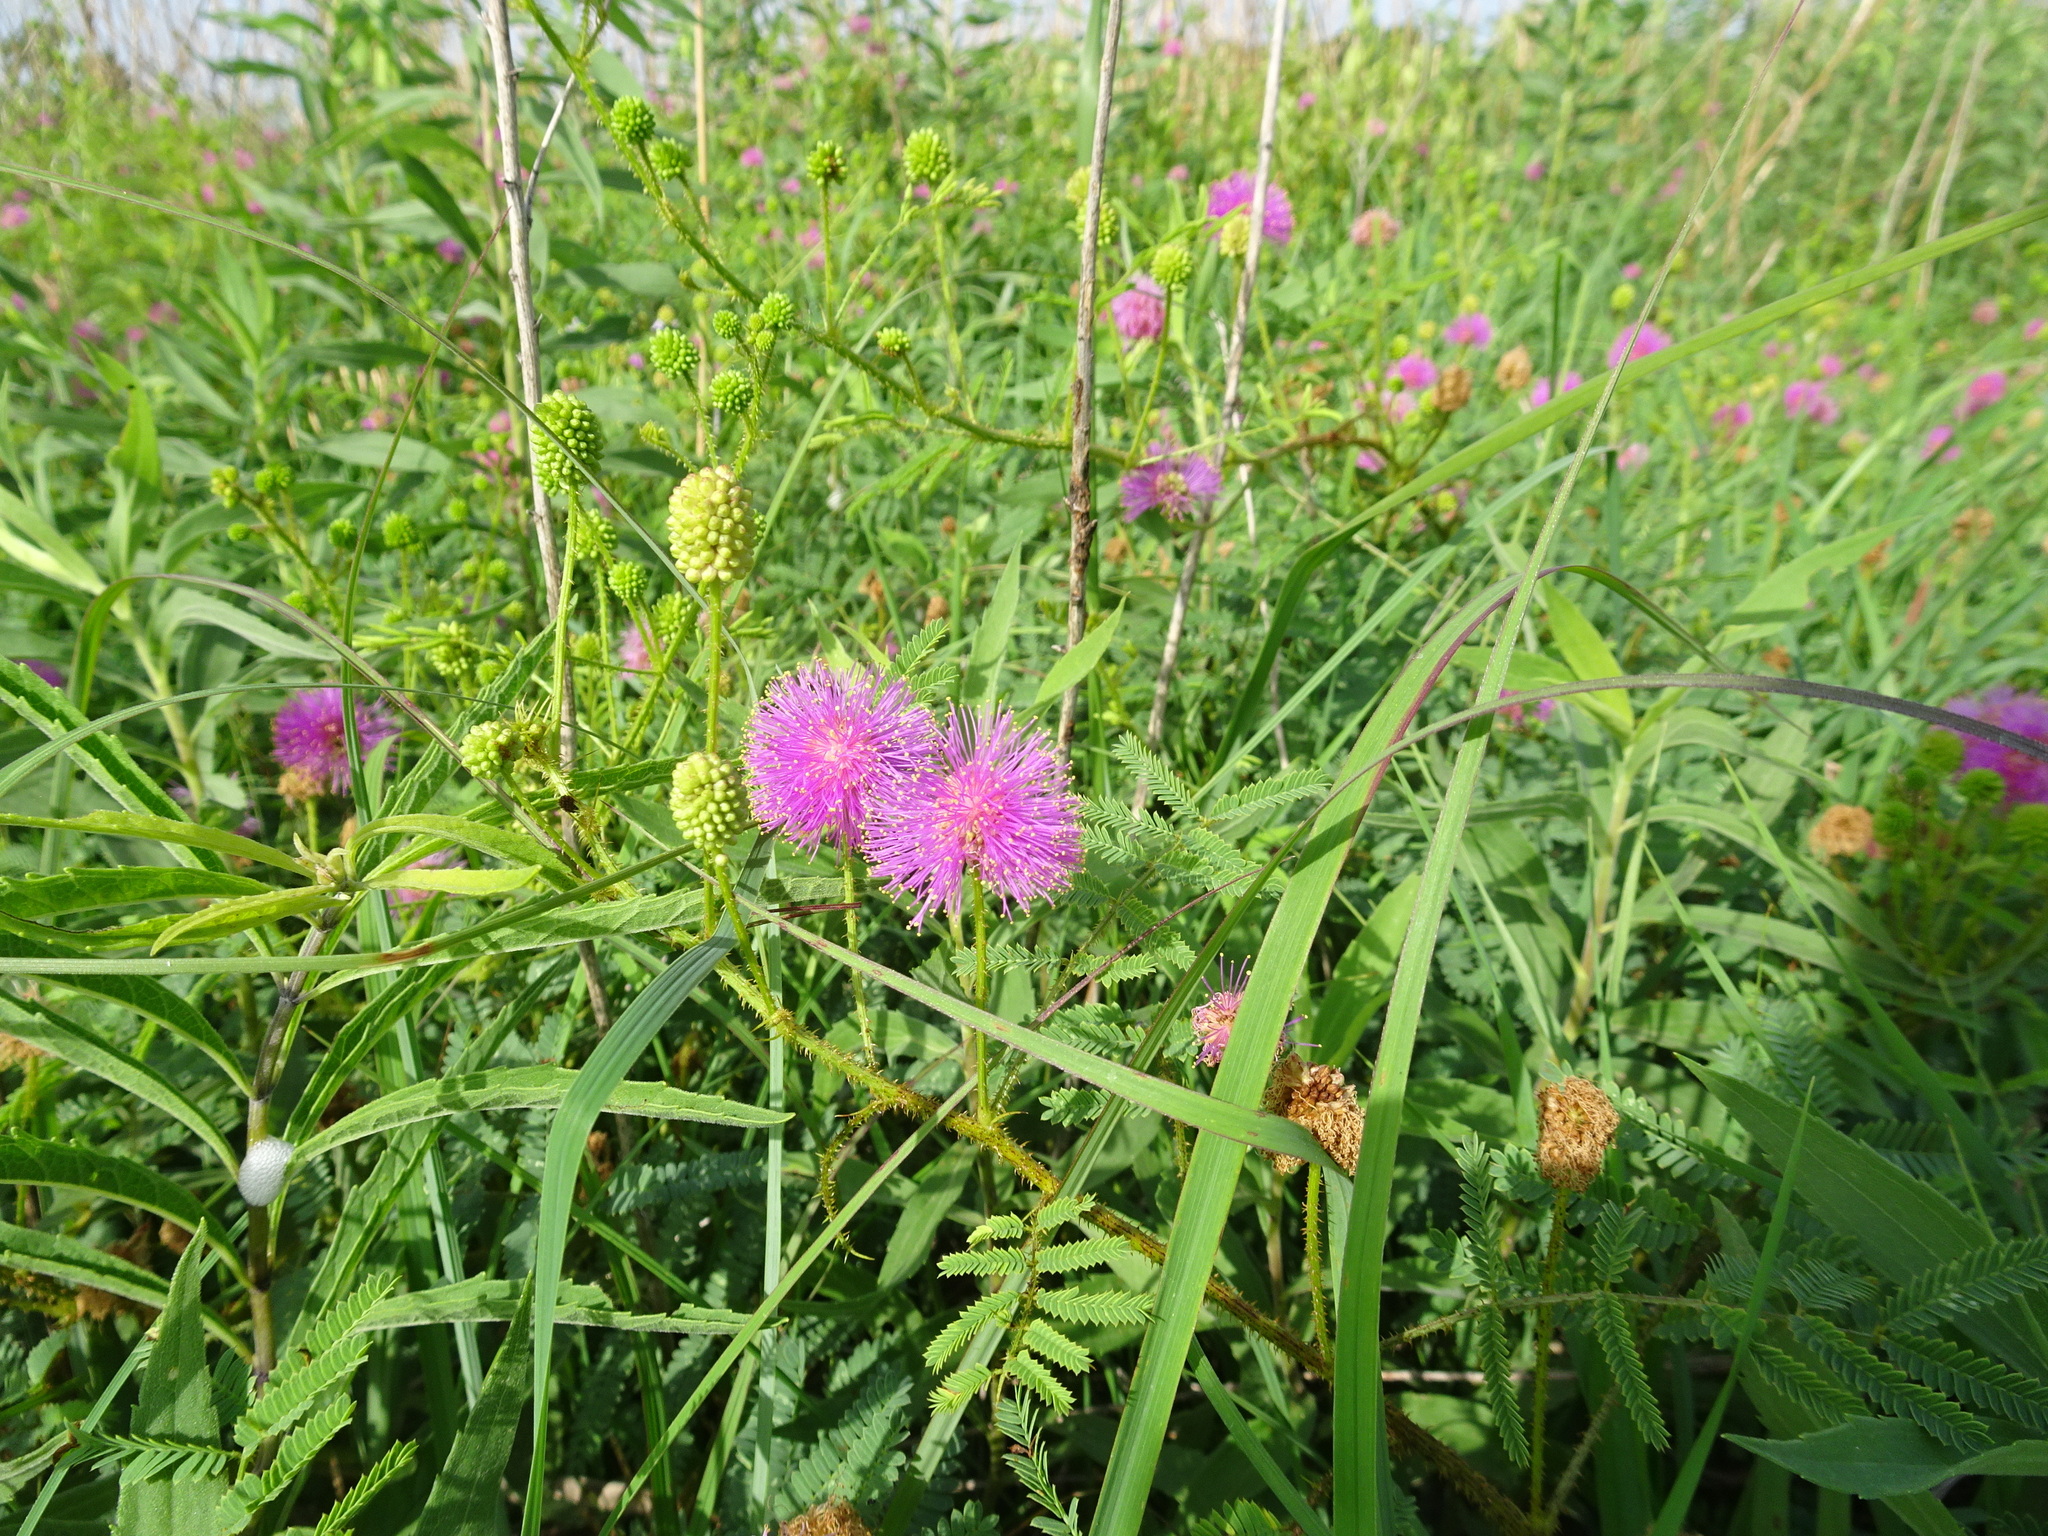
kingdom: Plantae
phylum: Tracheophyta
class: Magnoliopsida
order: Fabales
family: Fabaceae
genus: Mimosa
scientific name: Mimosa quadrivalvis
